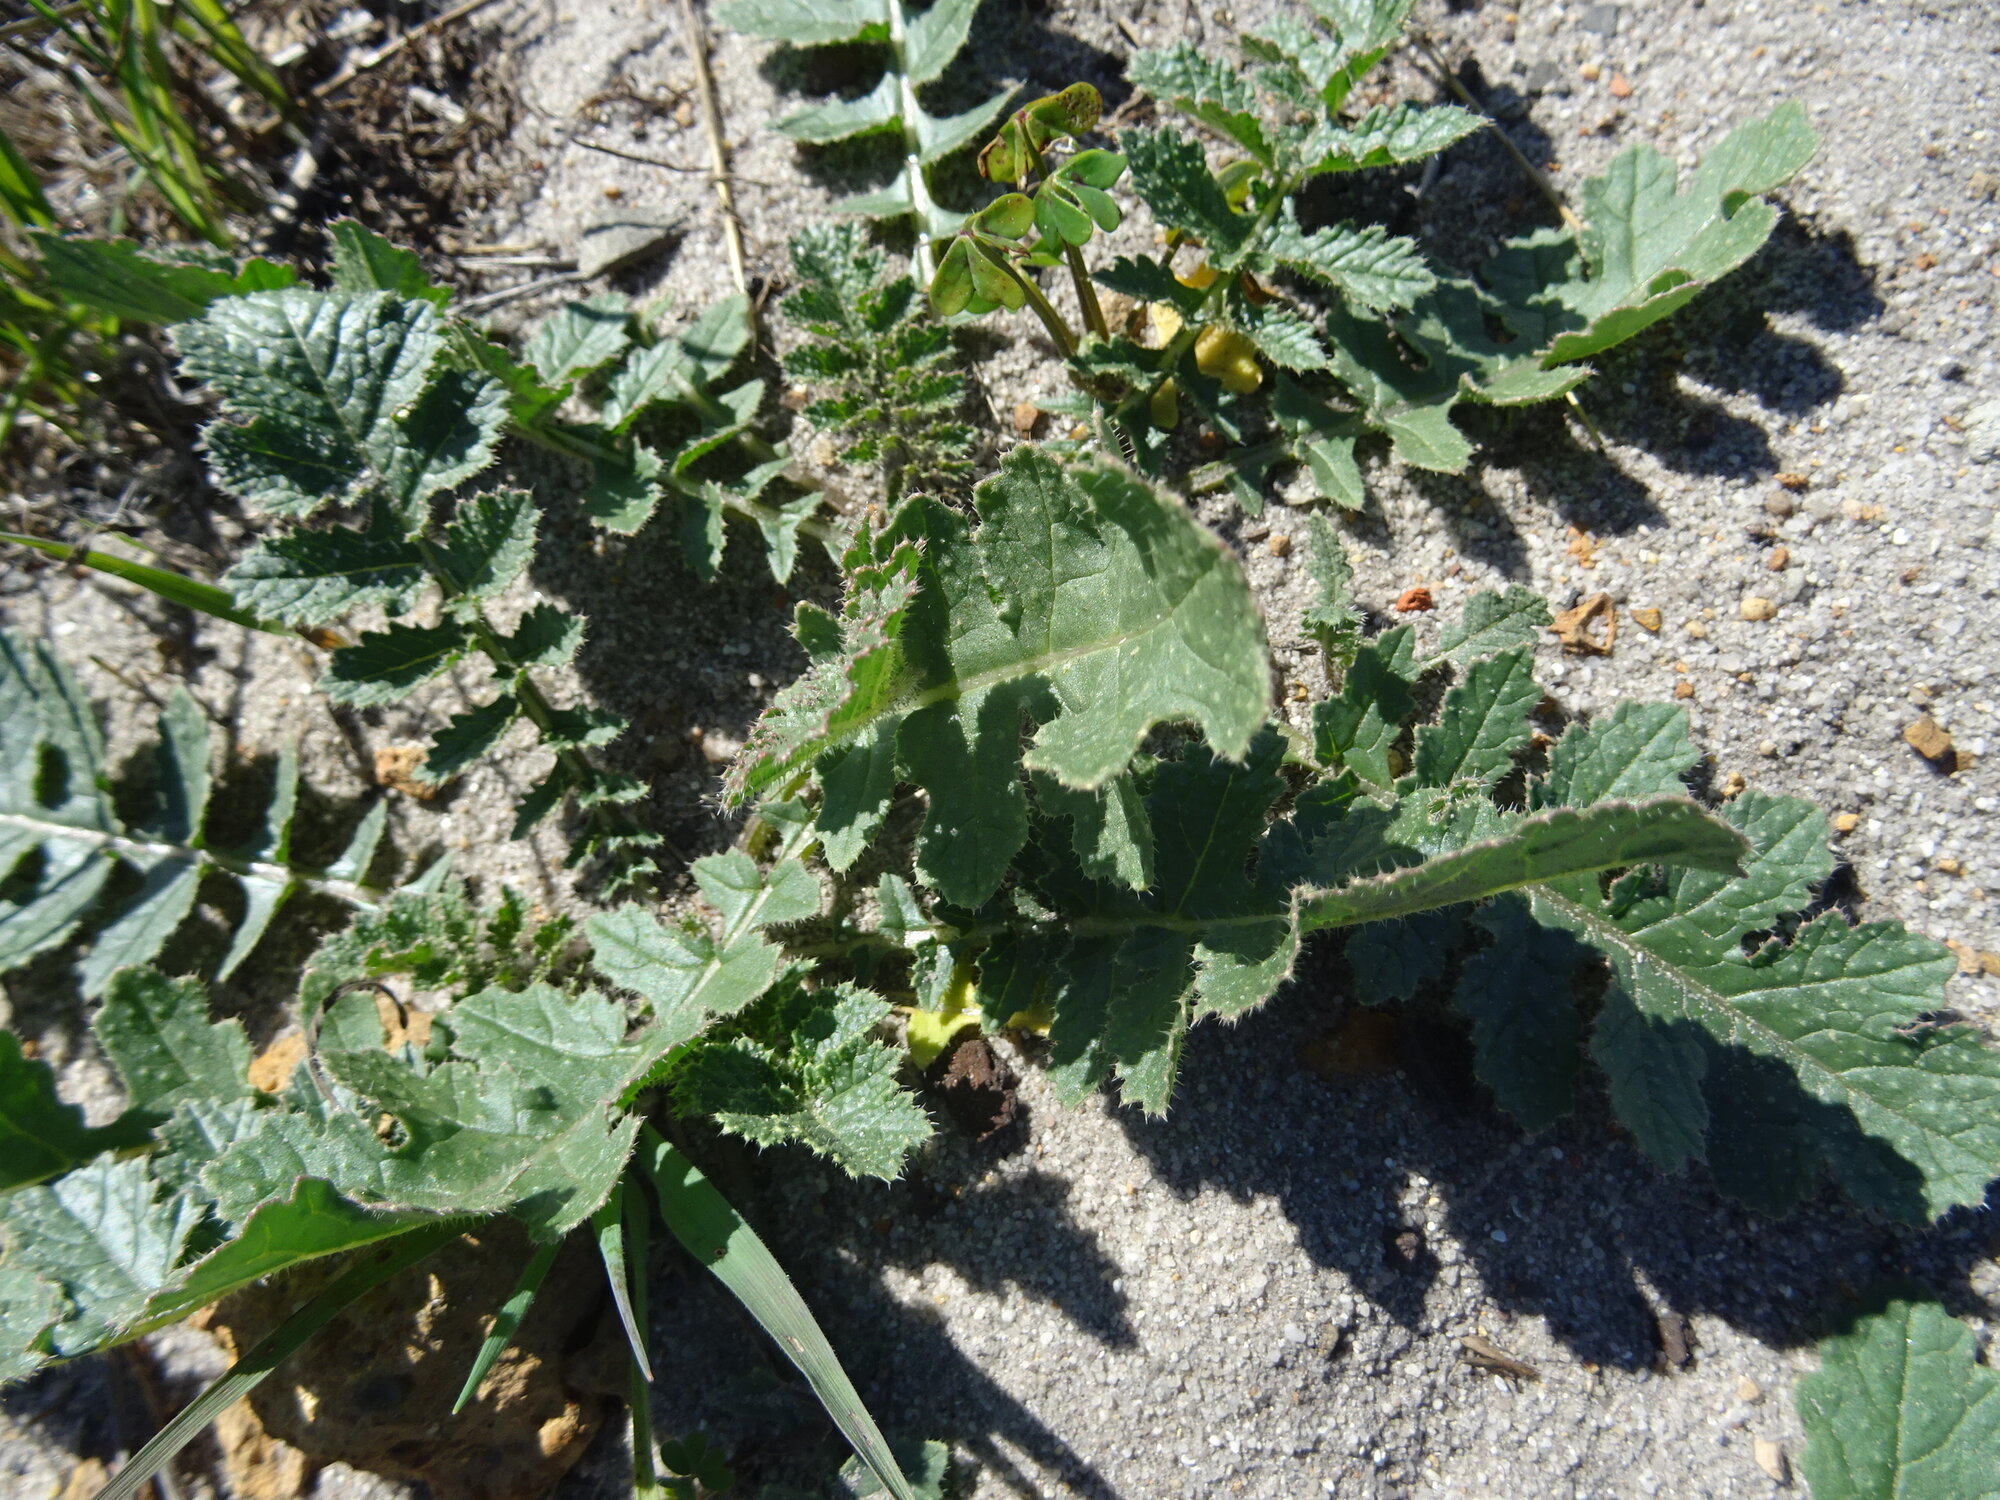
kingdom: Plantae
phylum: Tracheophyta
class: Magnoliopsida
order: Asterales
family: Asteraceae
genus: Arctotheca
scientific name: Arctotheca calendula
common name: Capeweed
